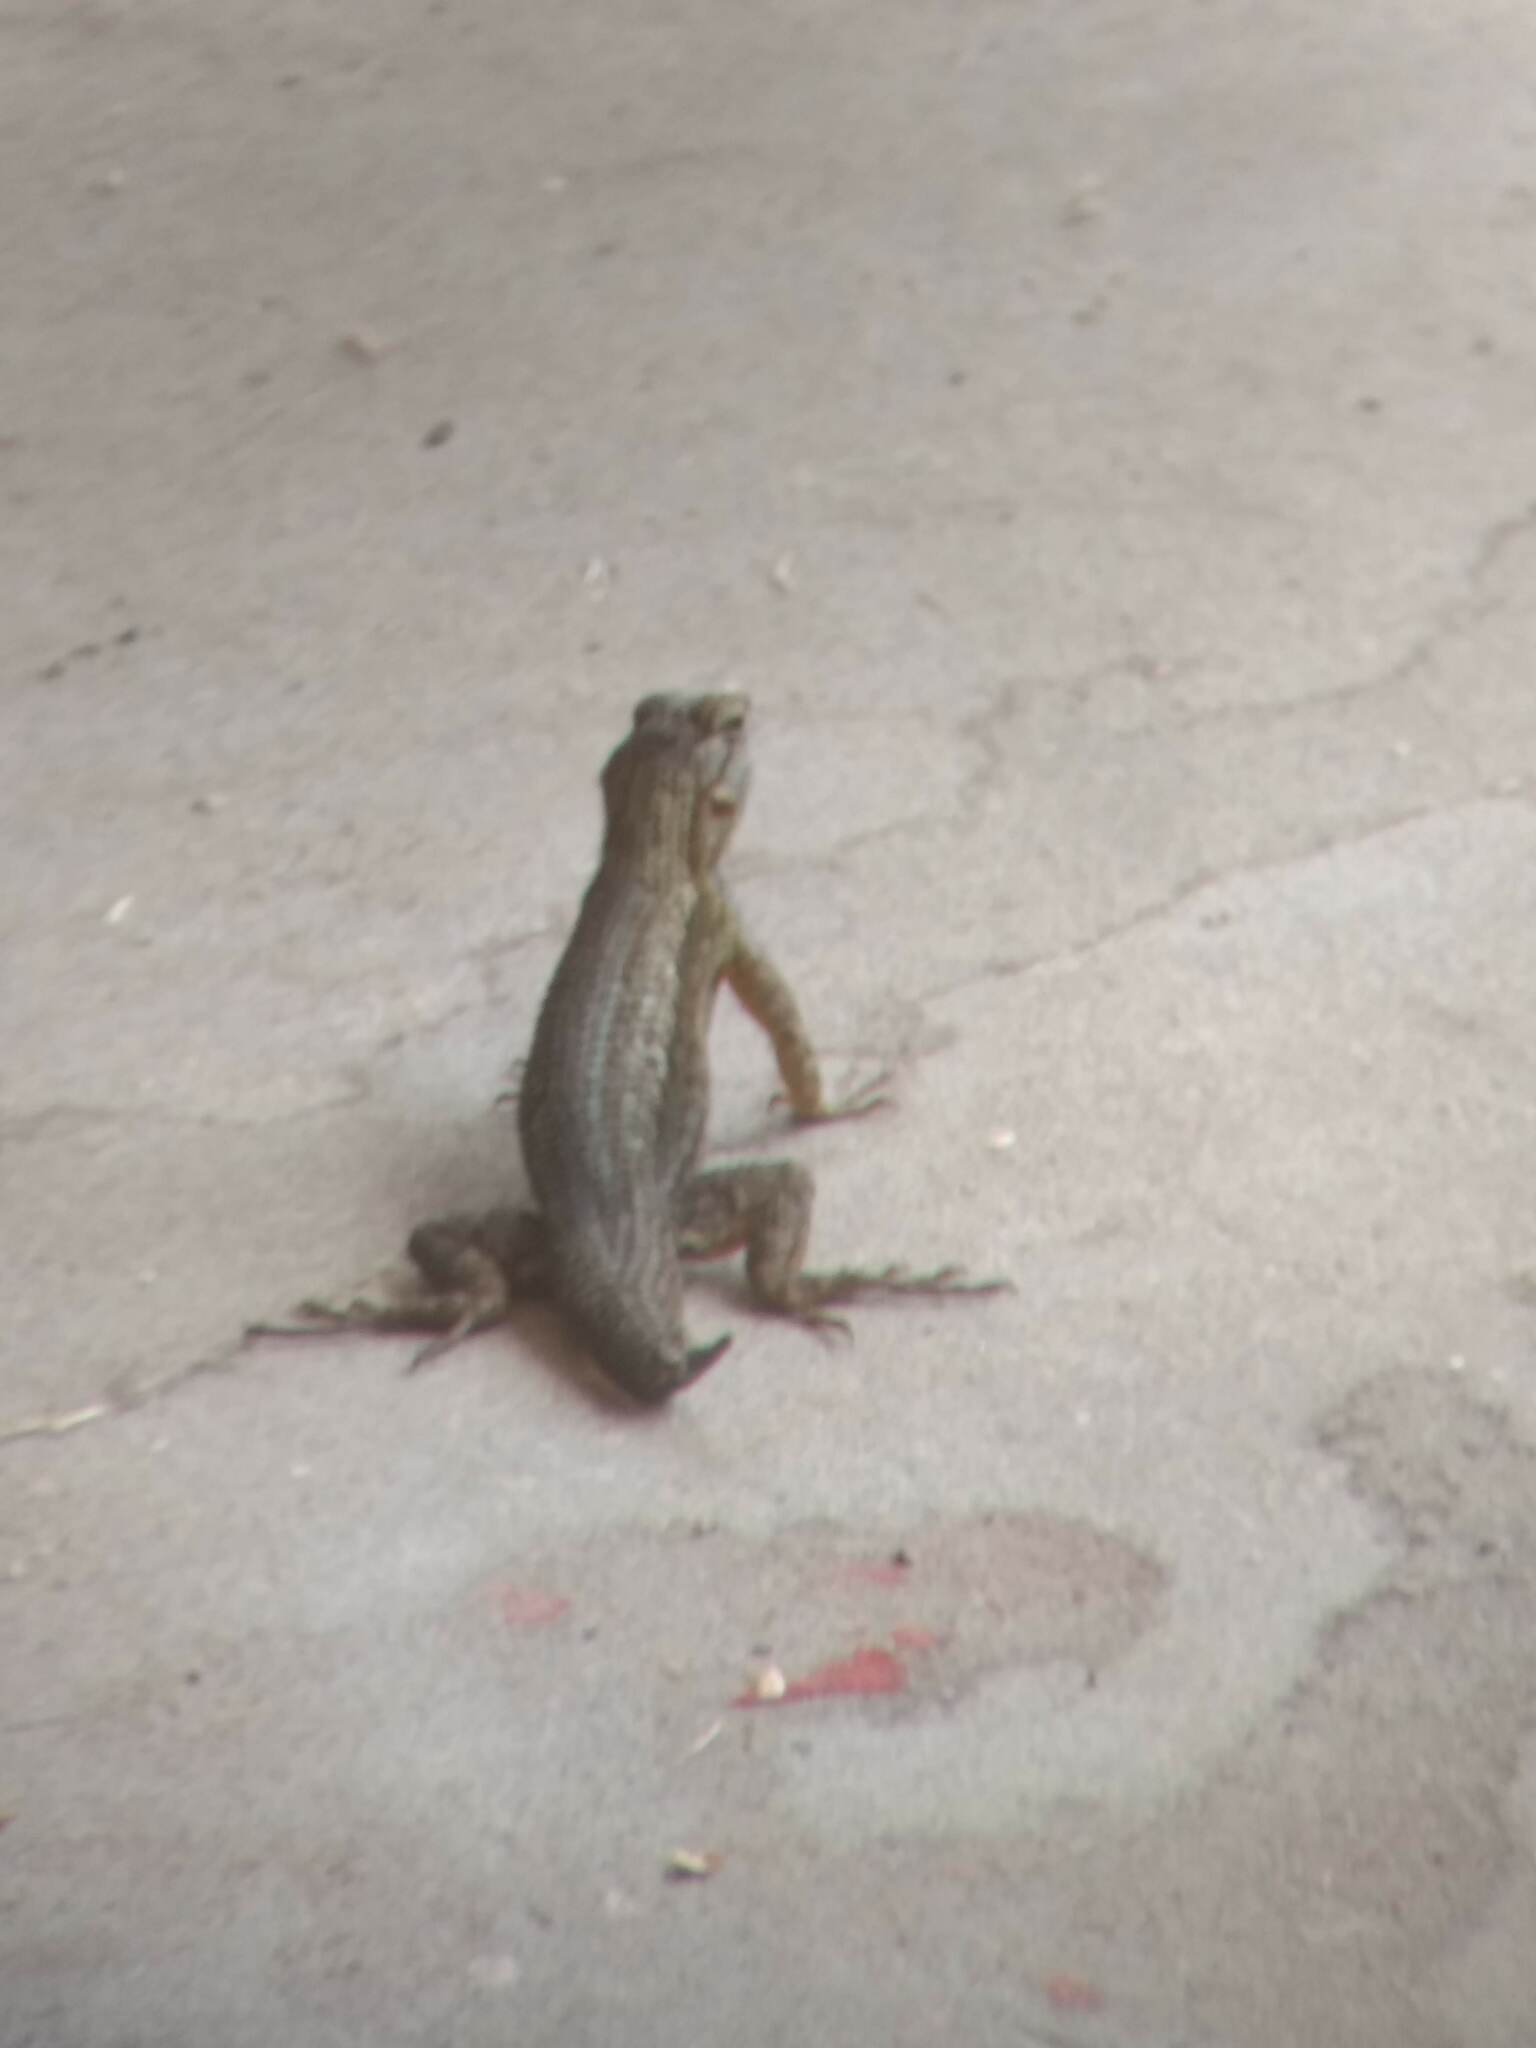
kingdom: Animalia
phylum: Chordata
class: Squamata
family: Phrynosomatidae
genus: Sceloporus
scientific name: Sceloporus occidentalis
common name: Western fence lizard
